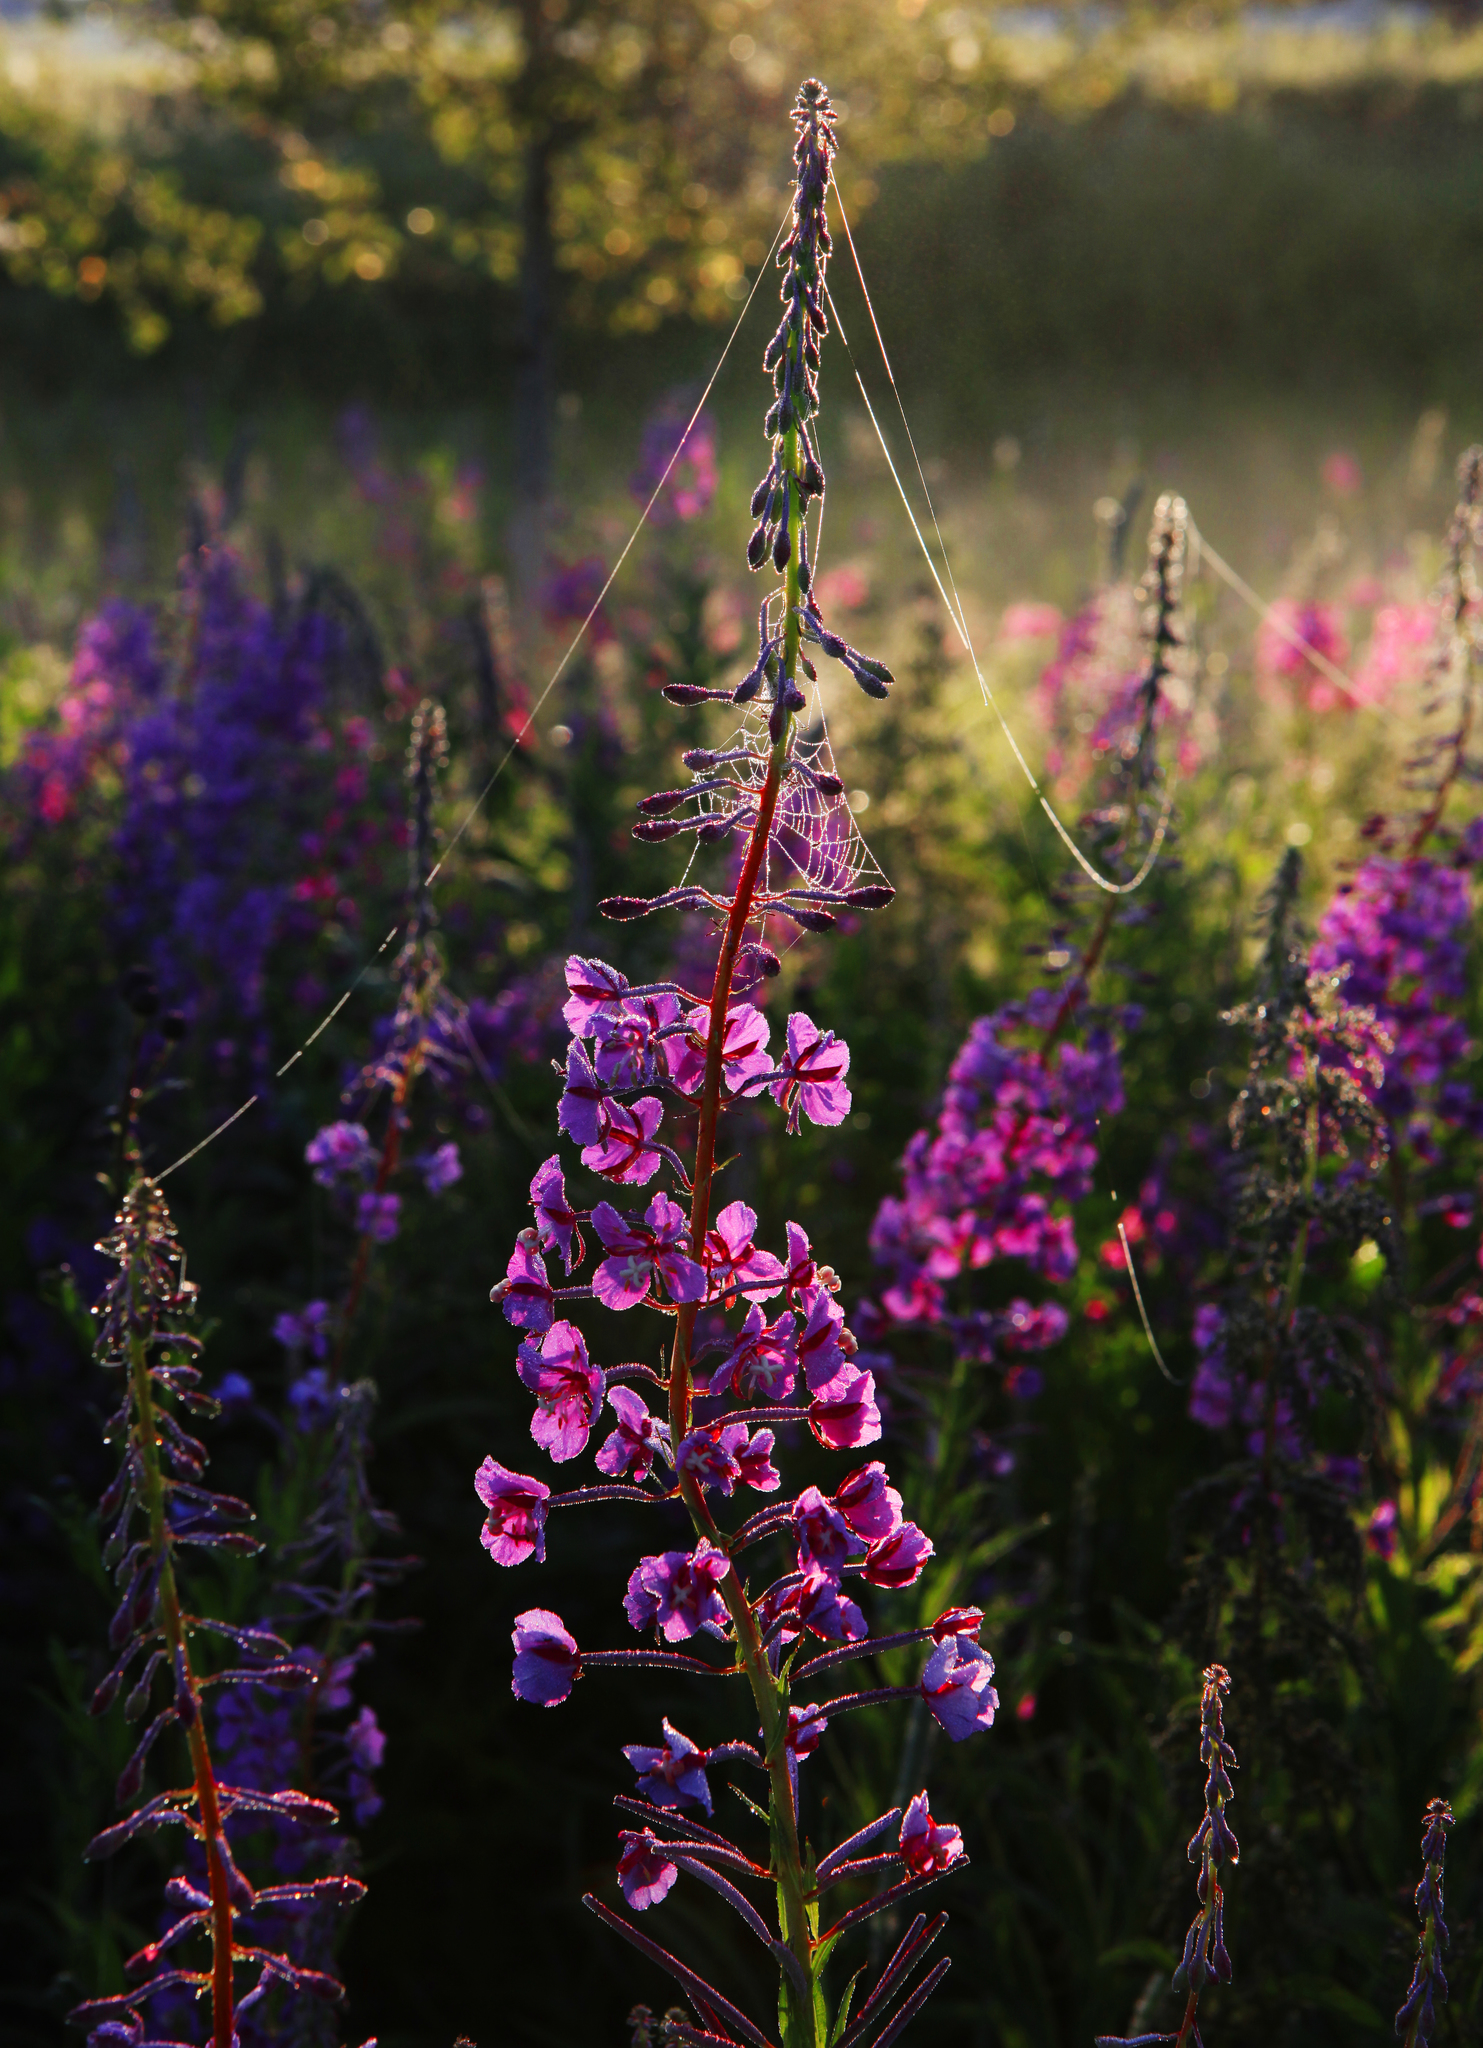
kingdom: Plantae
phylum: Tracheophyta
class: Magnoliopsida
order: Myrtales
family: Onagraceae
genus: Chamaenerion
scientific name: Chamaenerion angustifolium
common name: Fireweed
